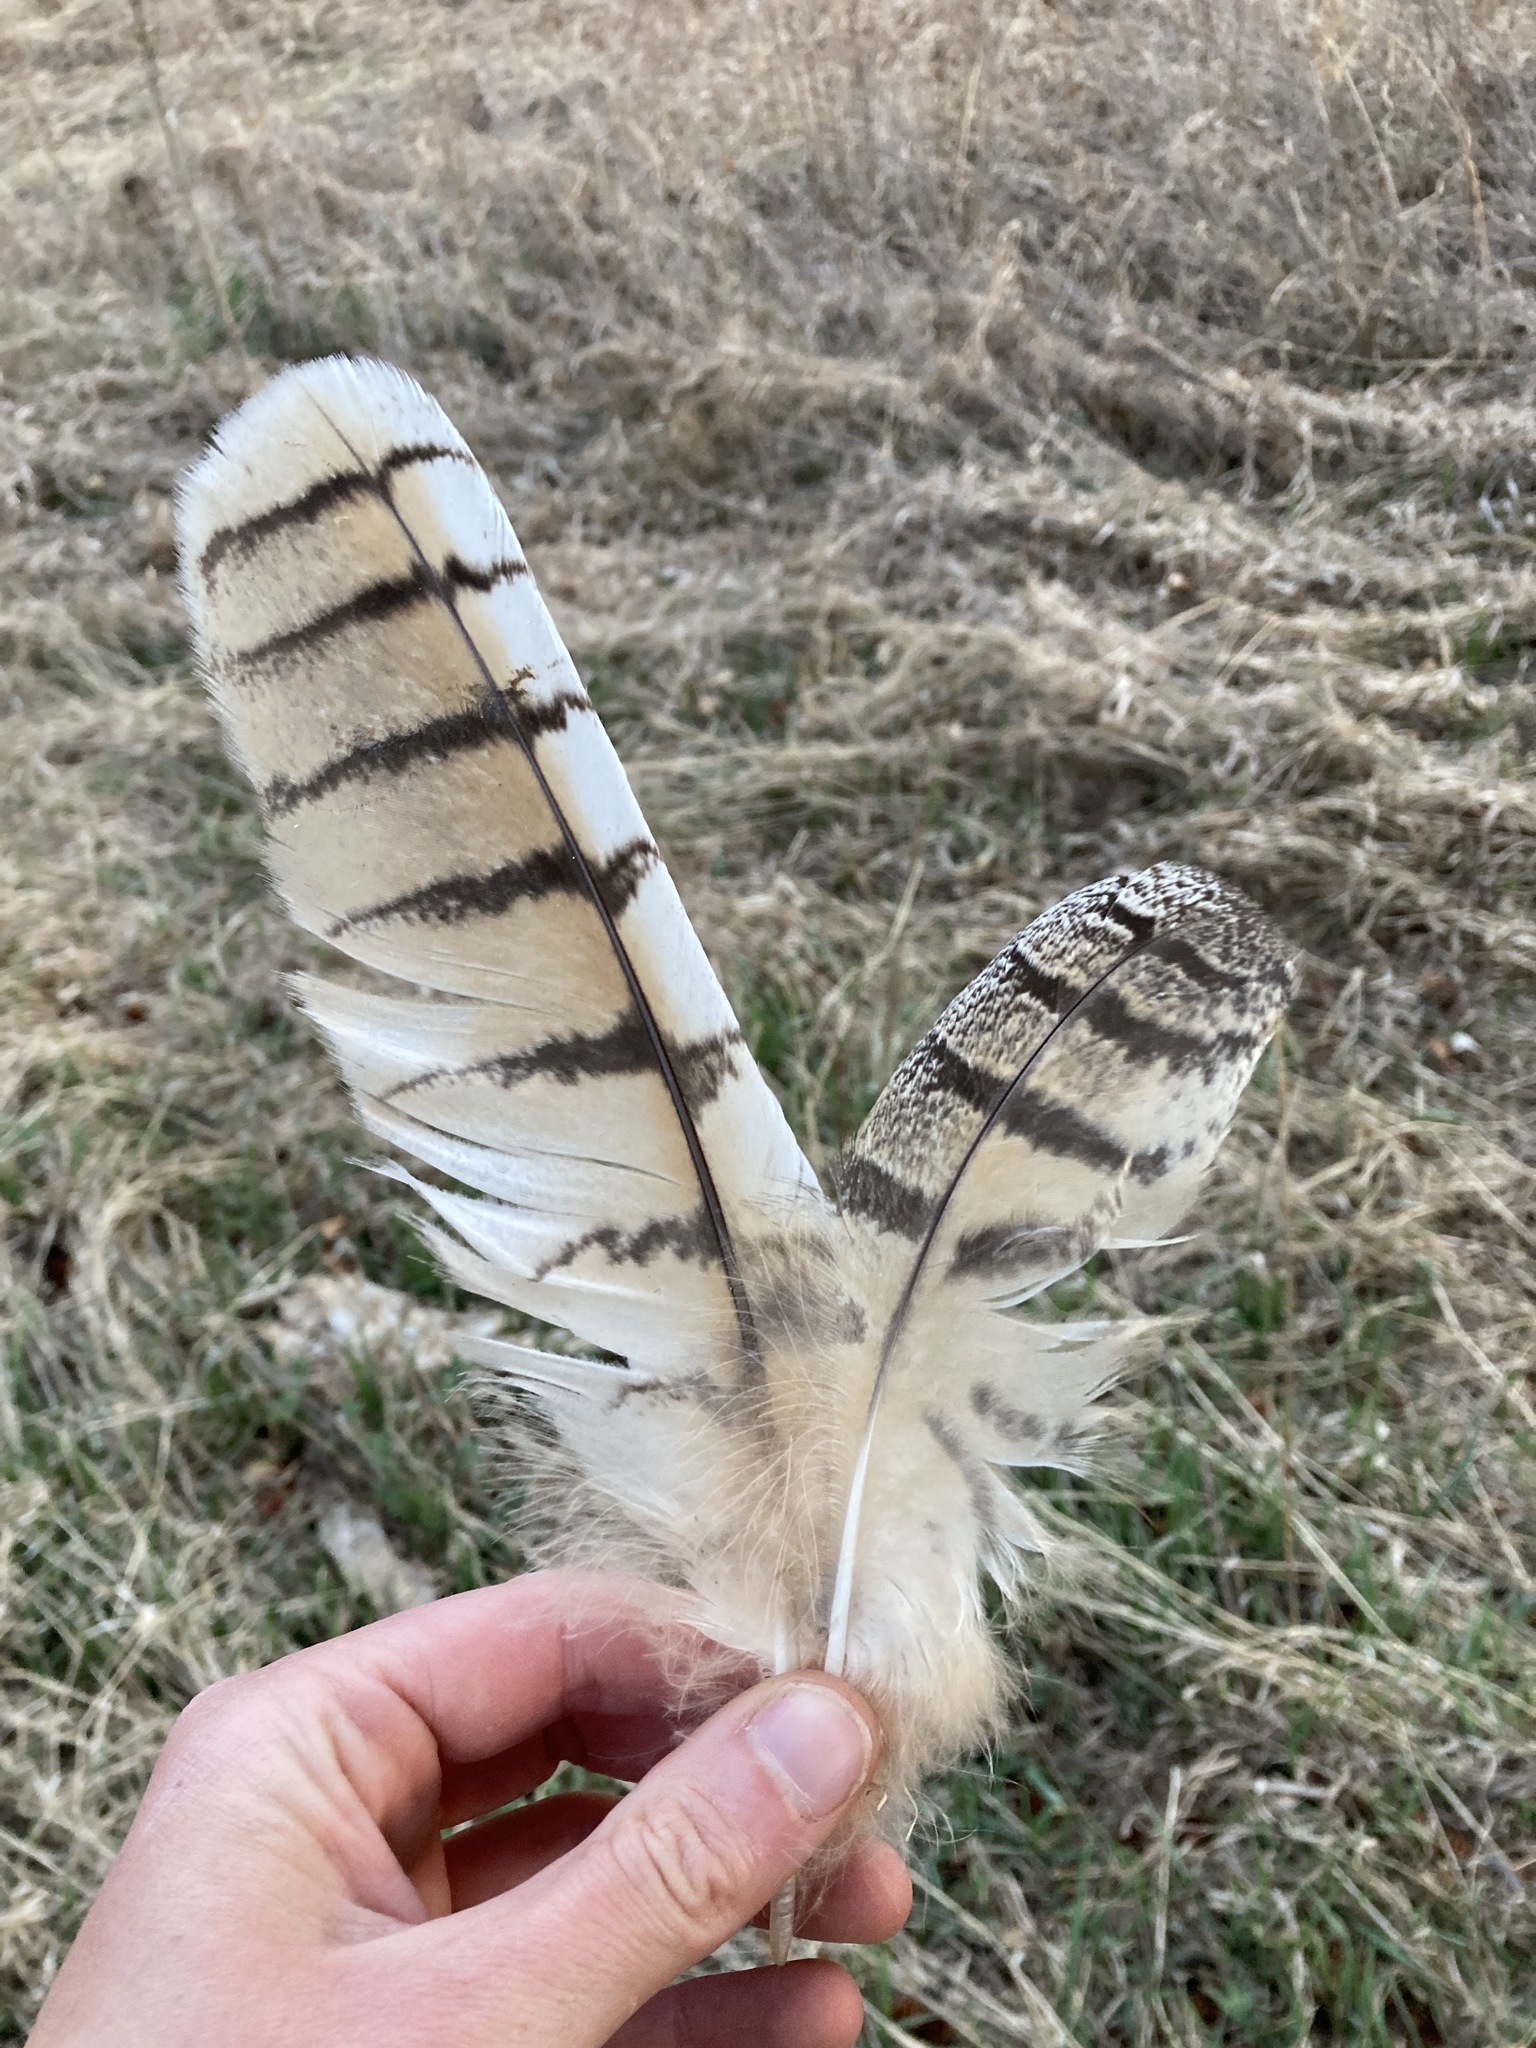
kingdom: Animalia
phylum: Chordata
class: Aves
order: Strigiformes
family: Strigidae
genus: Bubo
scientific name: Bubo virginianus
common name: Great horned owl
